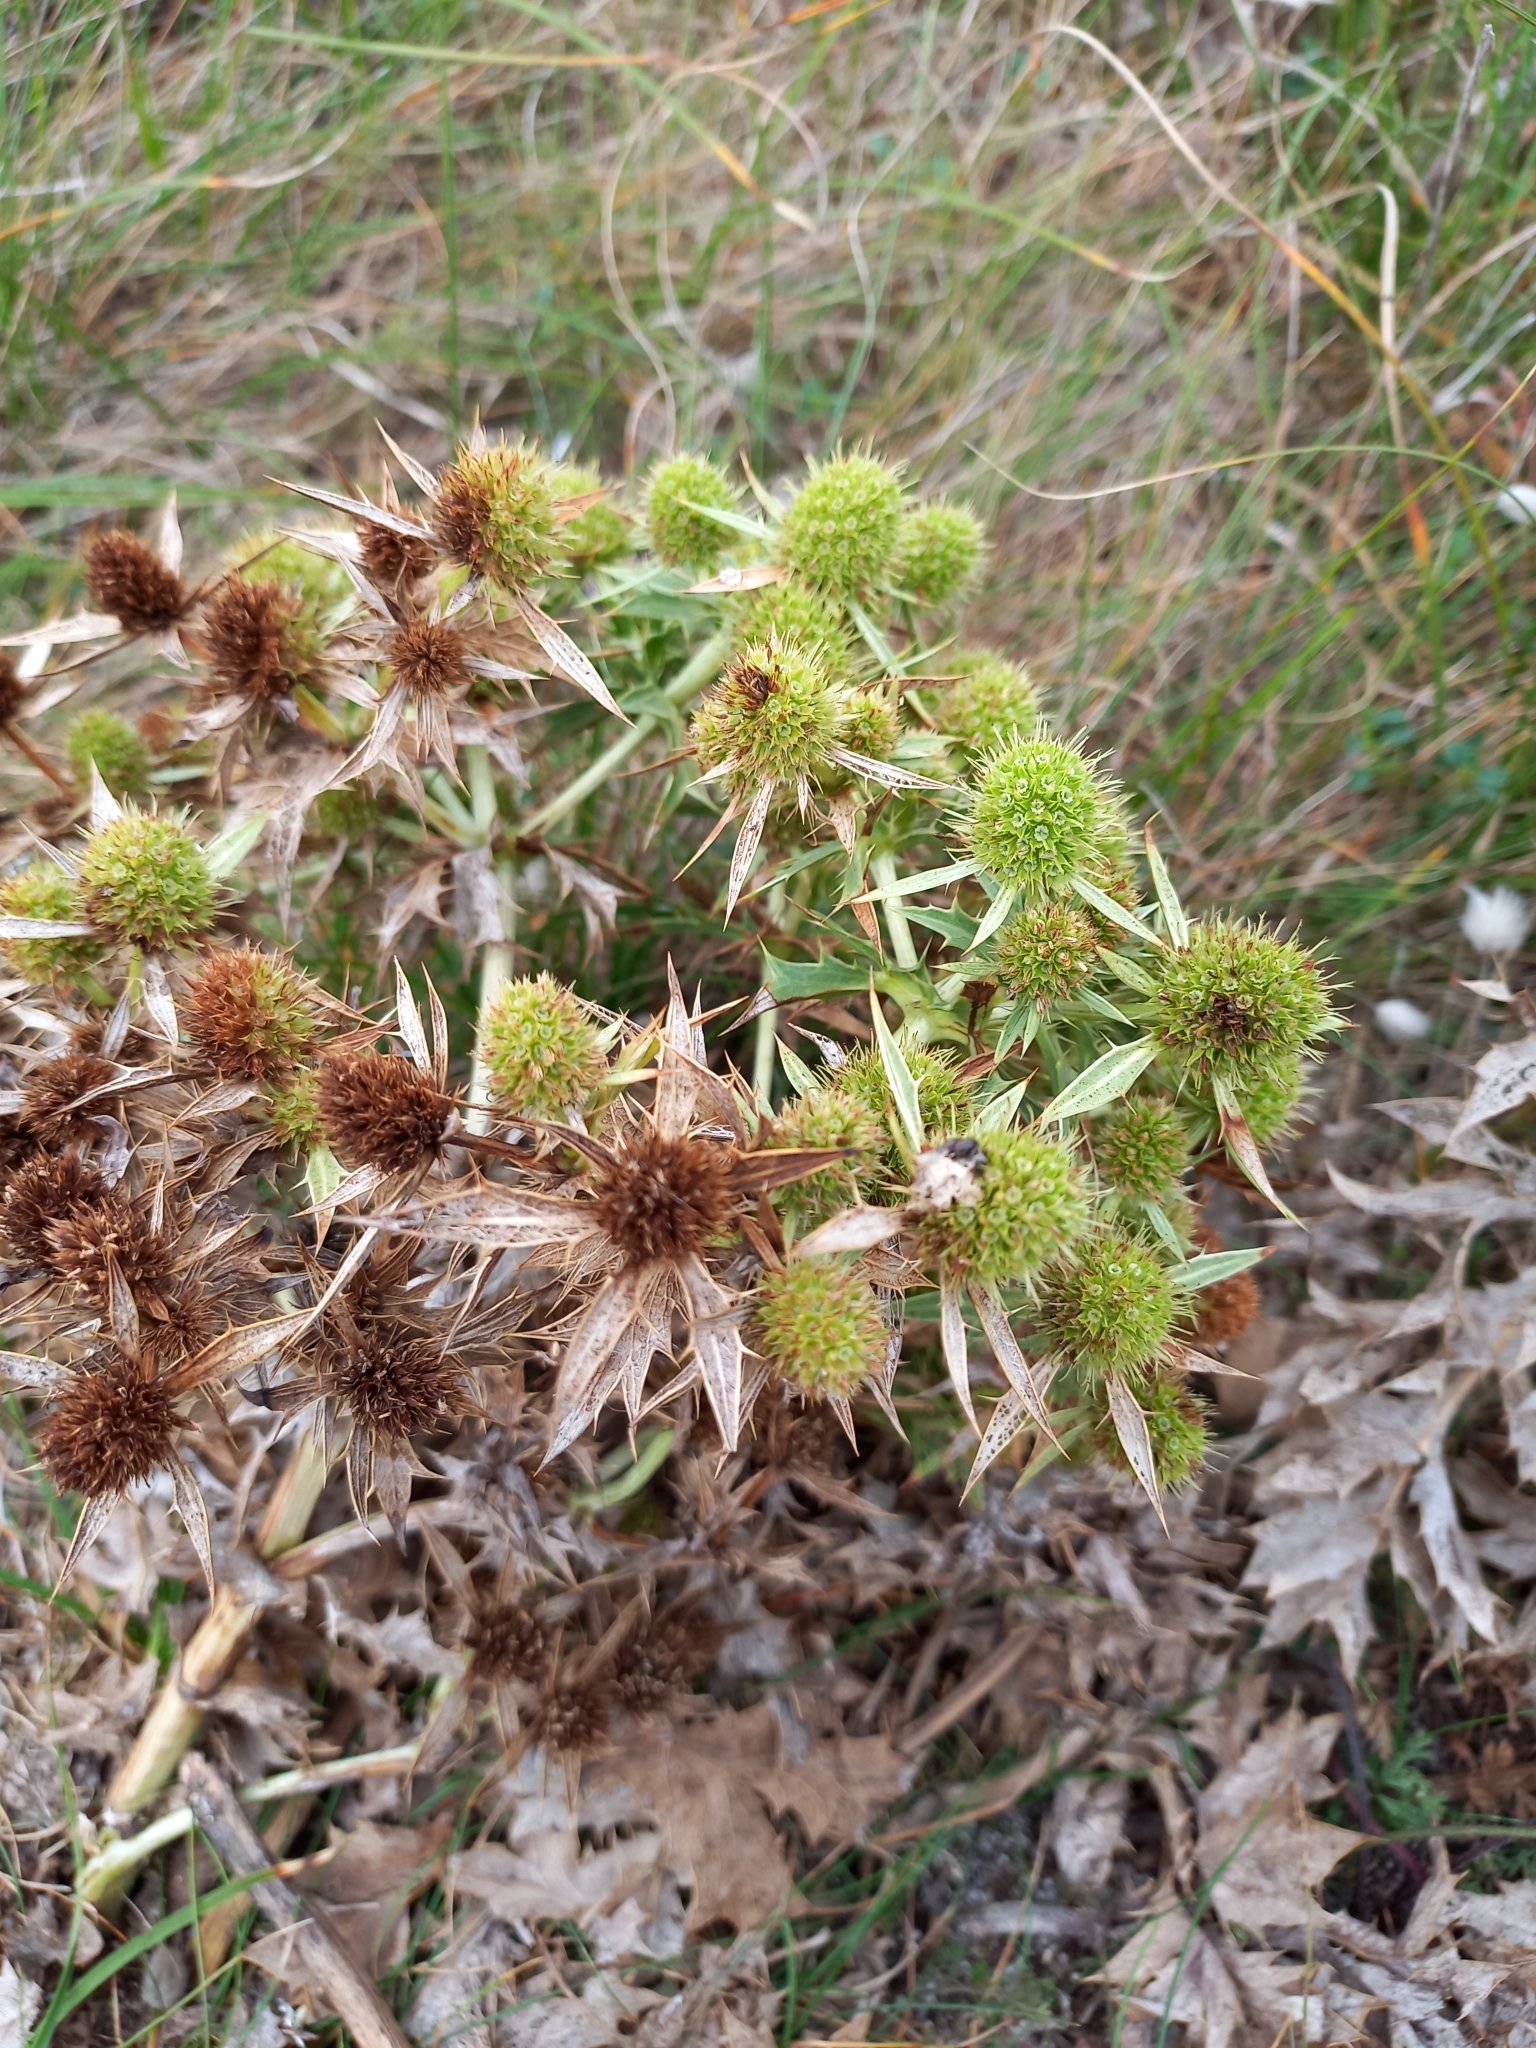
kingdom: Plantae
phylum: Tracheophyta
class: Magnoliopsida
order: Apiales
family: Apiaceae
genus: Eryngium
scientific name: Eryngium campestre
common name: Field eryngo
